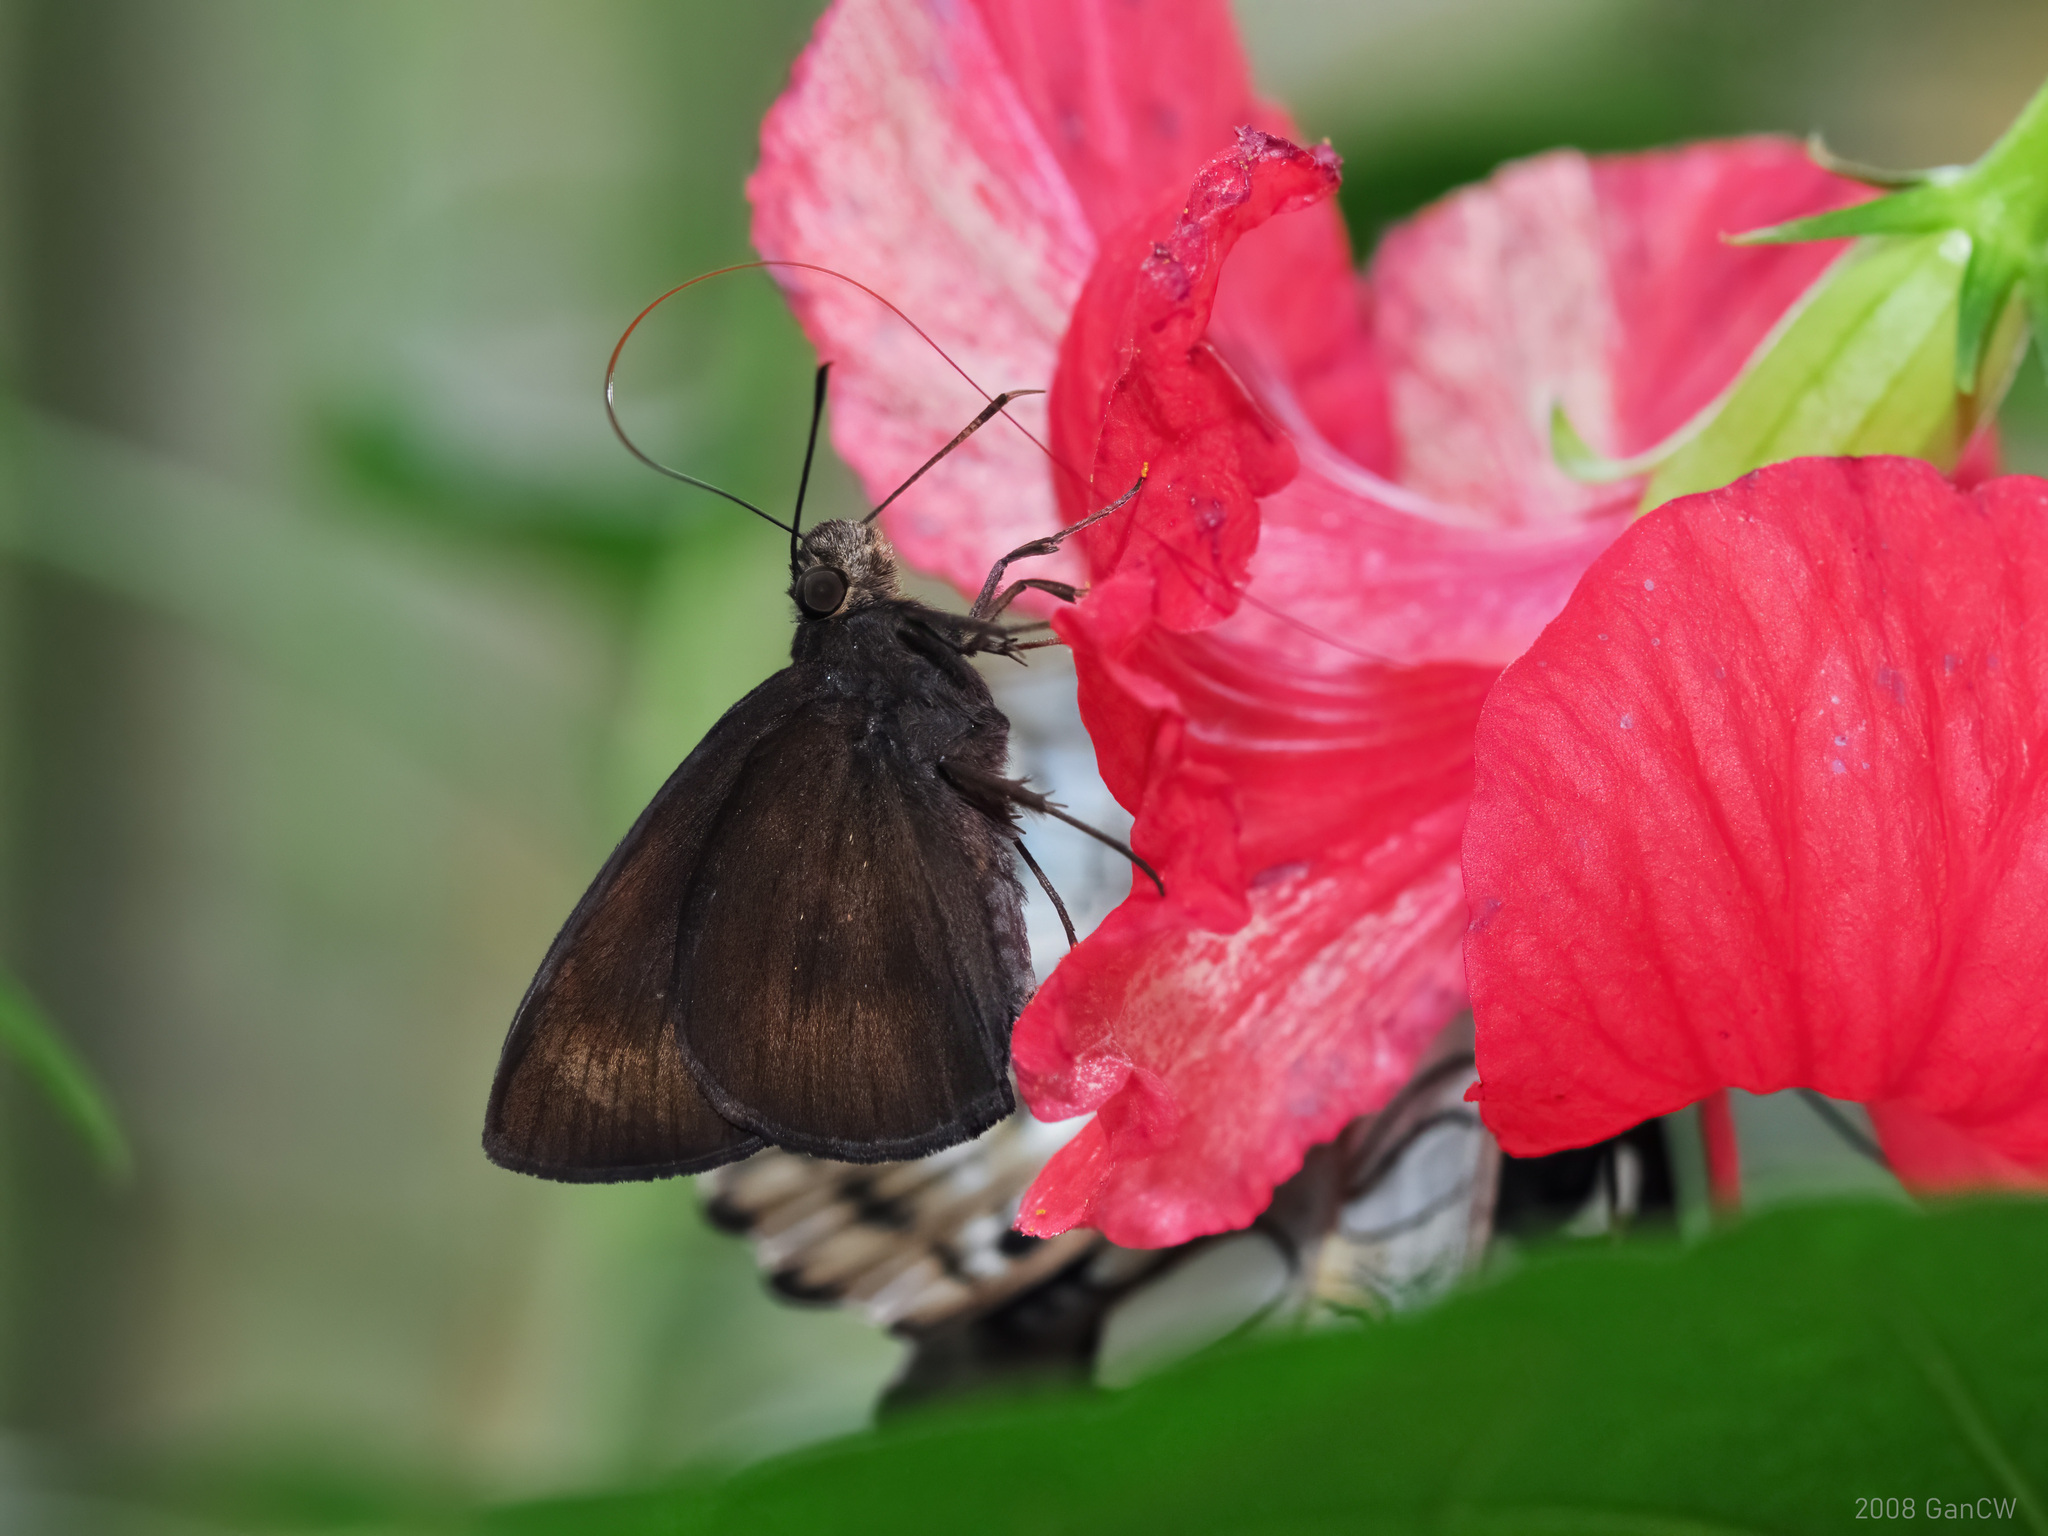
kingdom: Animalia
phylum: Arthropoda
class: Insecta
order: Lepidoptera
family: Hesperiidae
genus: Ancistroides
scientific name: Ancistroides nigrita
